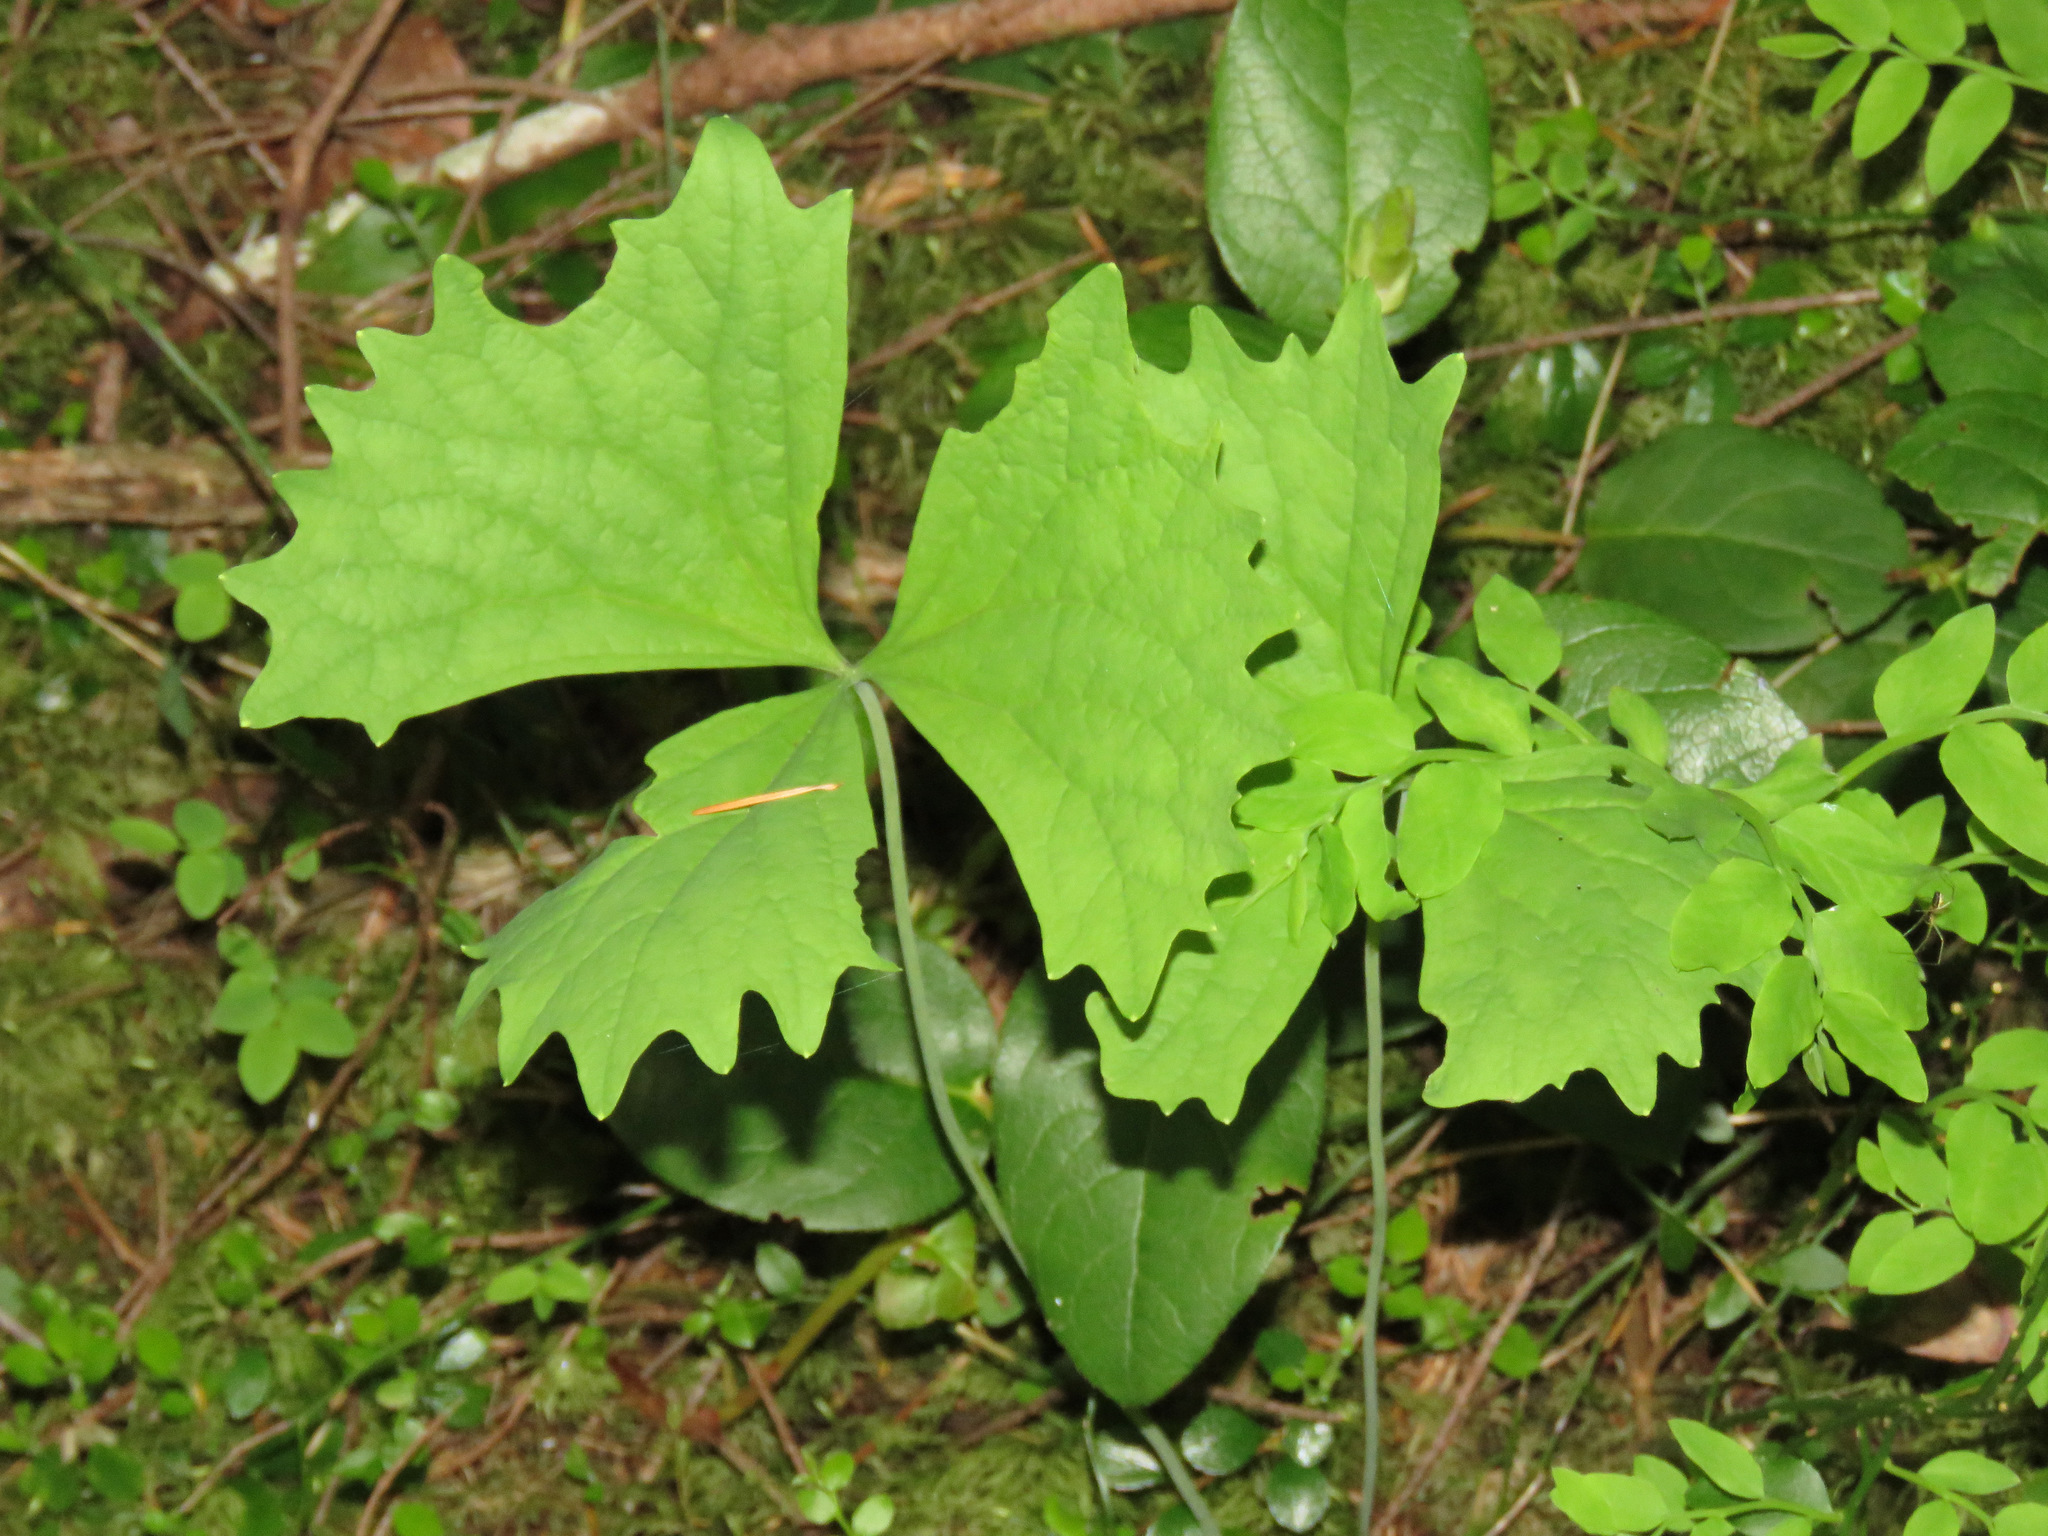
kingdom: Plantae
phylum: Tracheophyta
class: Magnoliopsida
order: Ranunculales
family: Berberidaceae
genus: Achlys
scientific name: Achlys triphylla
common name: Vanilla-leaf
